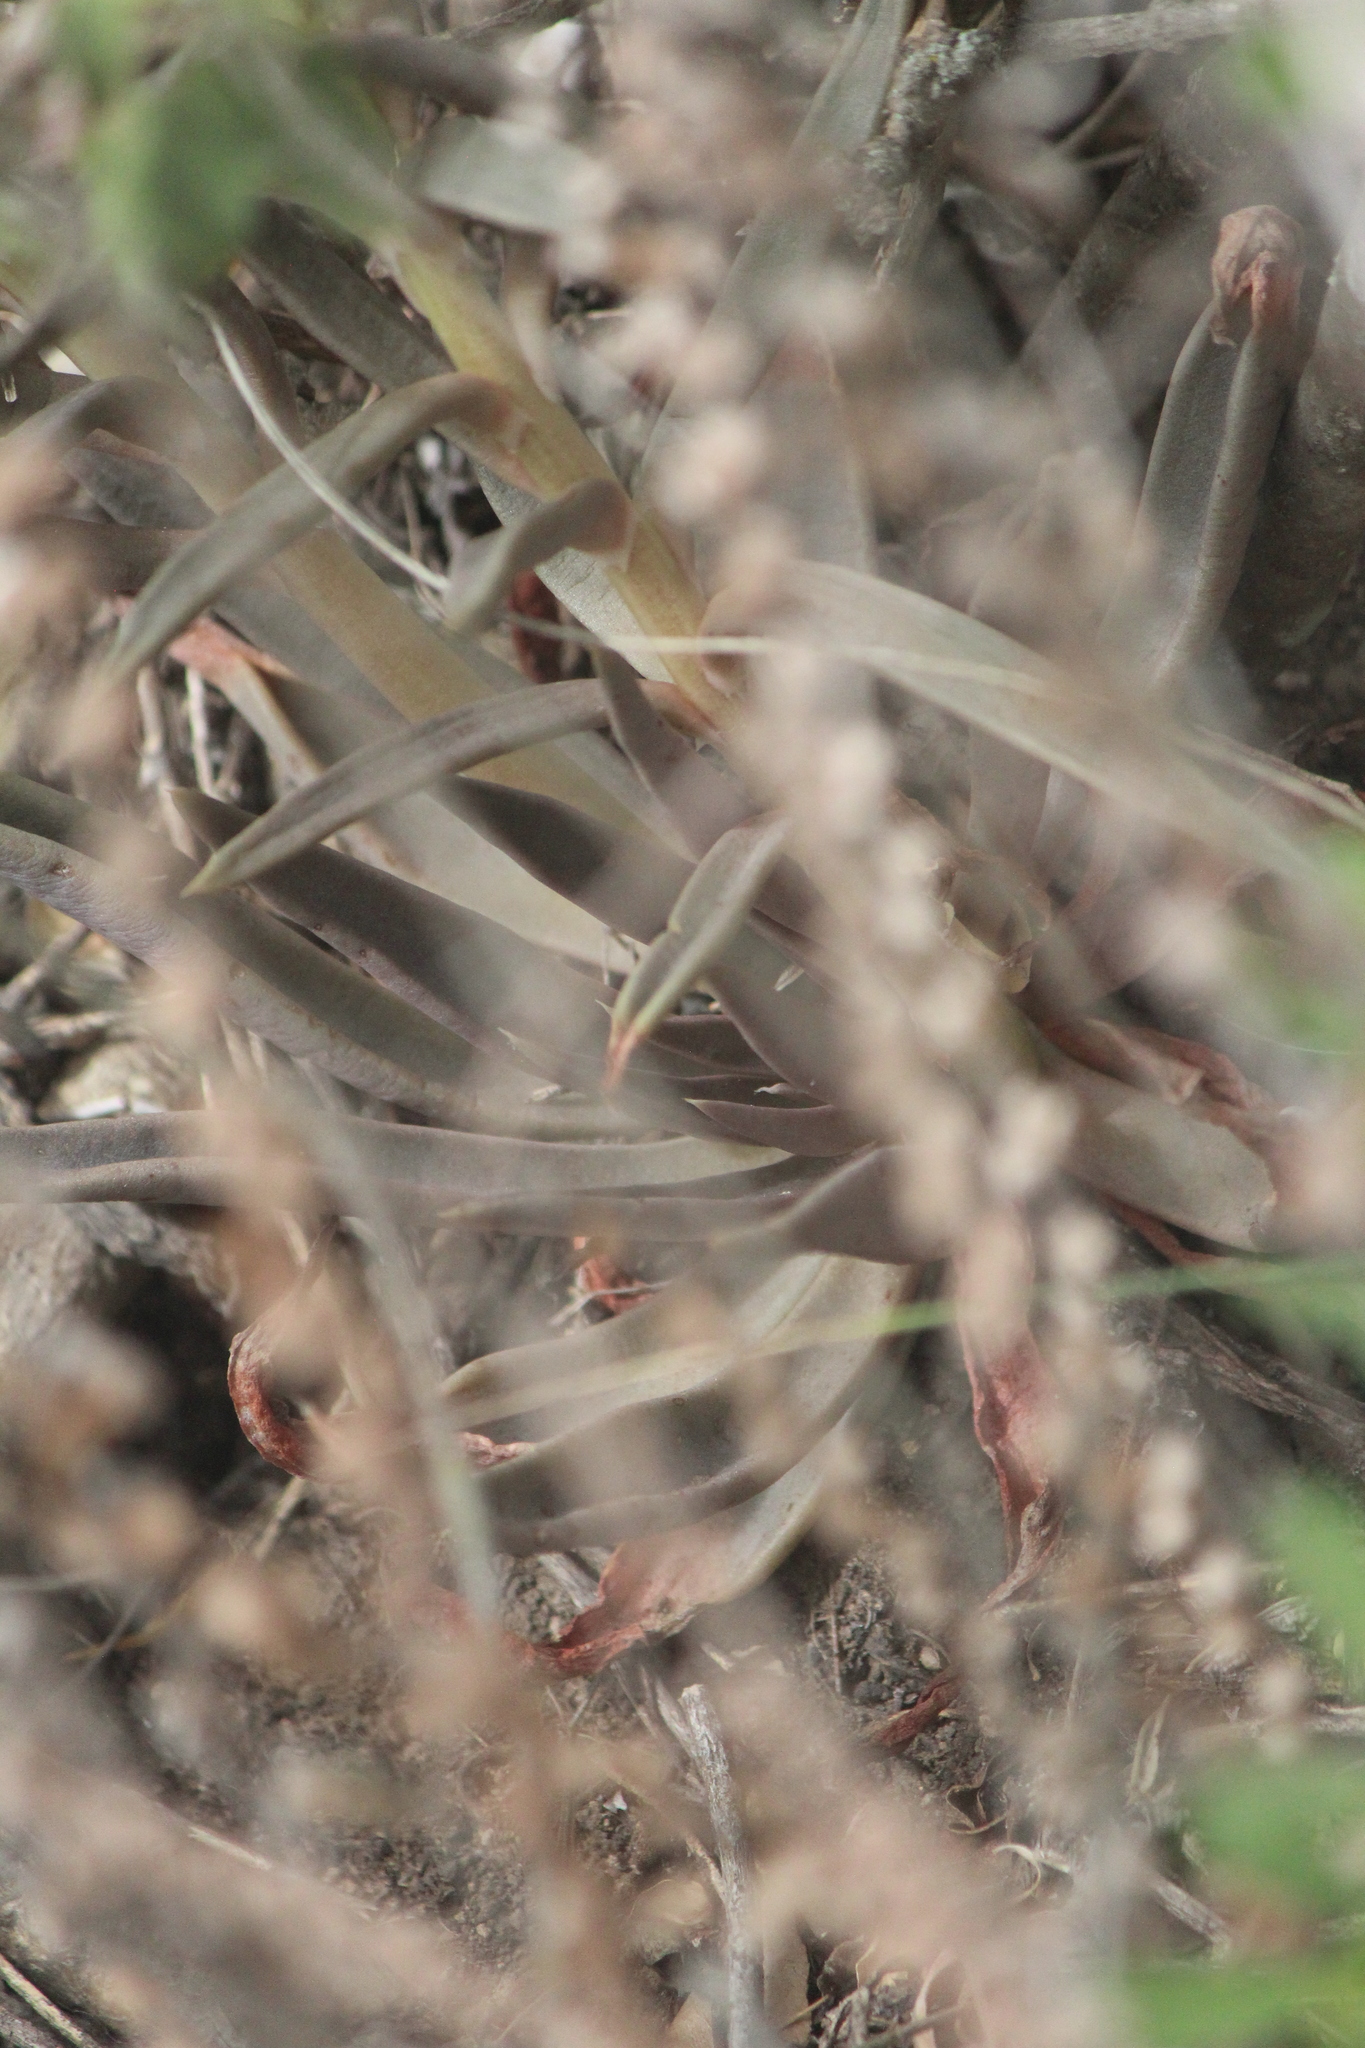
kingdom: Plantae
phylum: Tracheophyta
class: Magnoliopsida
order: Saxifragales
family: Crassulaceae
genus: Echeveria
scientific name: Echeveria bifida
